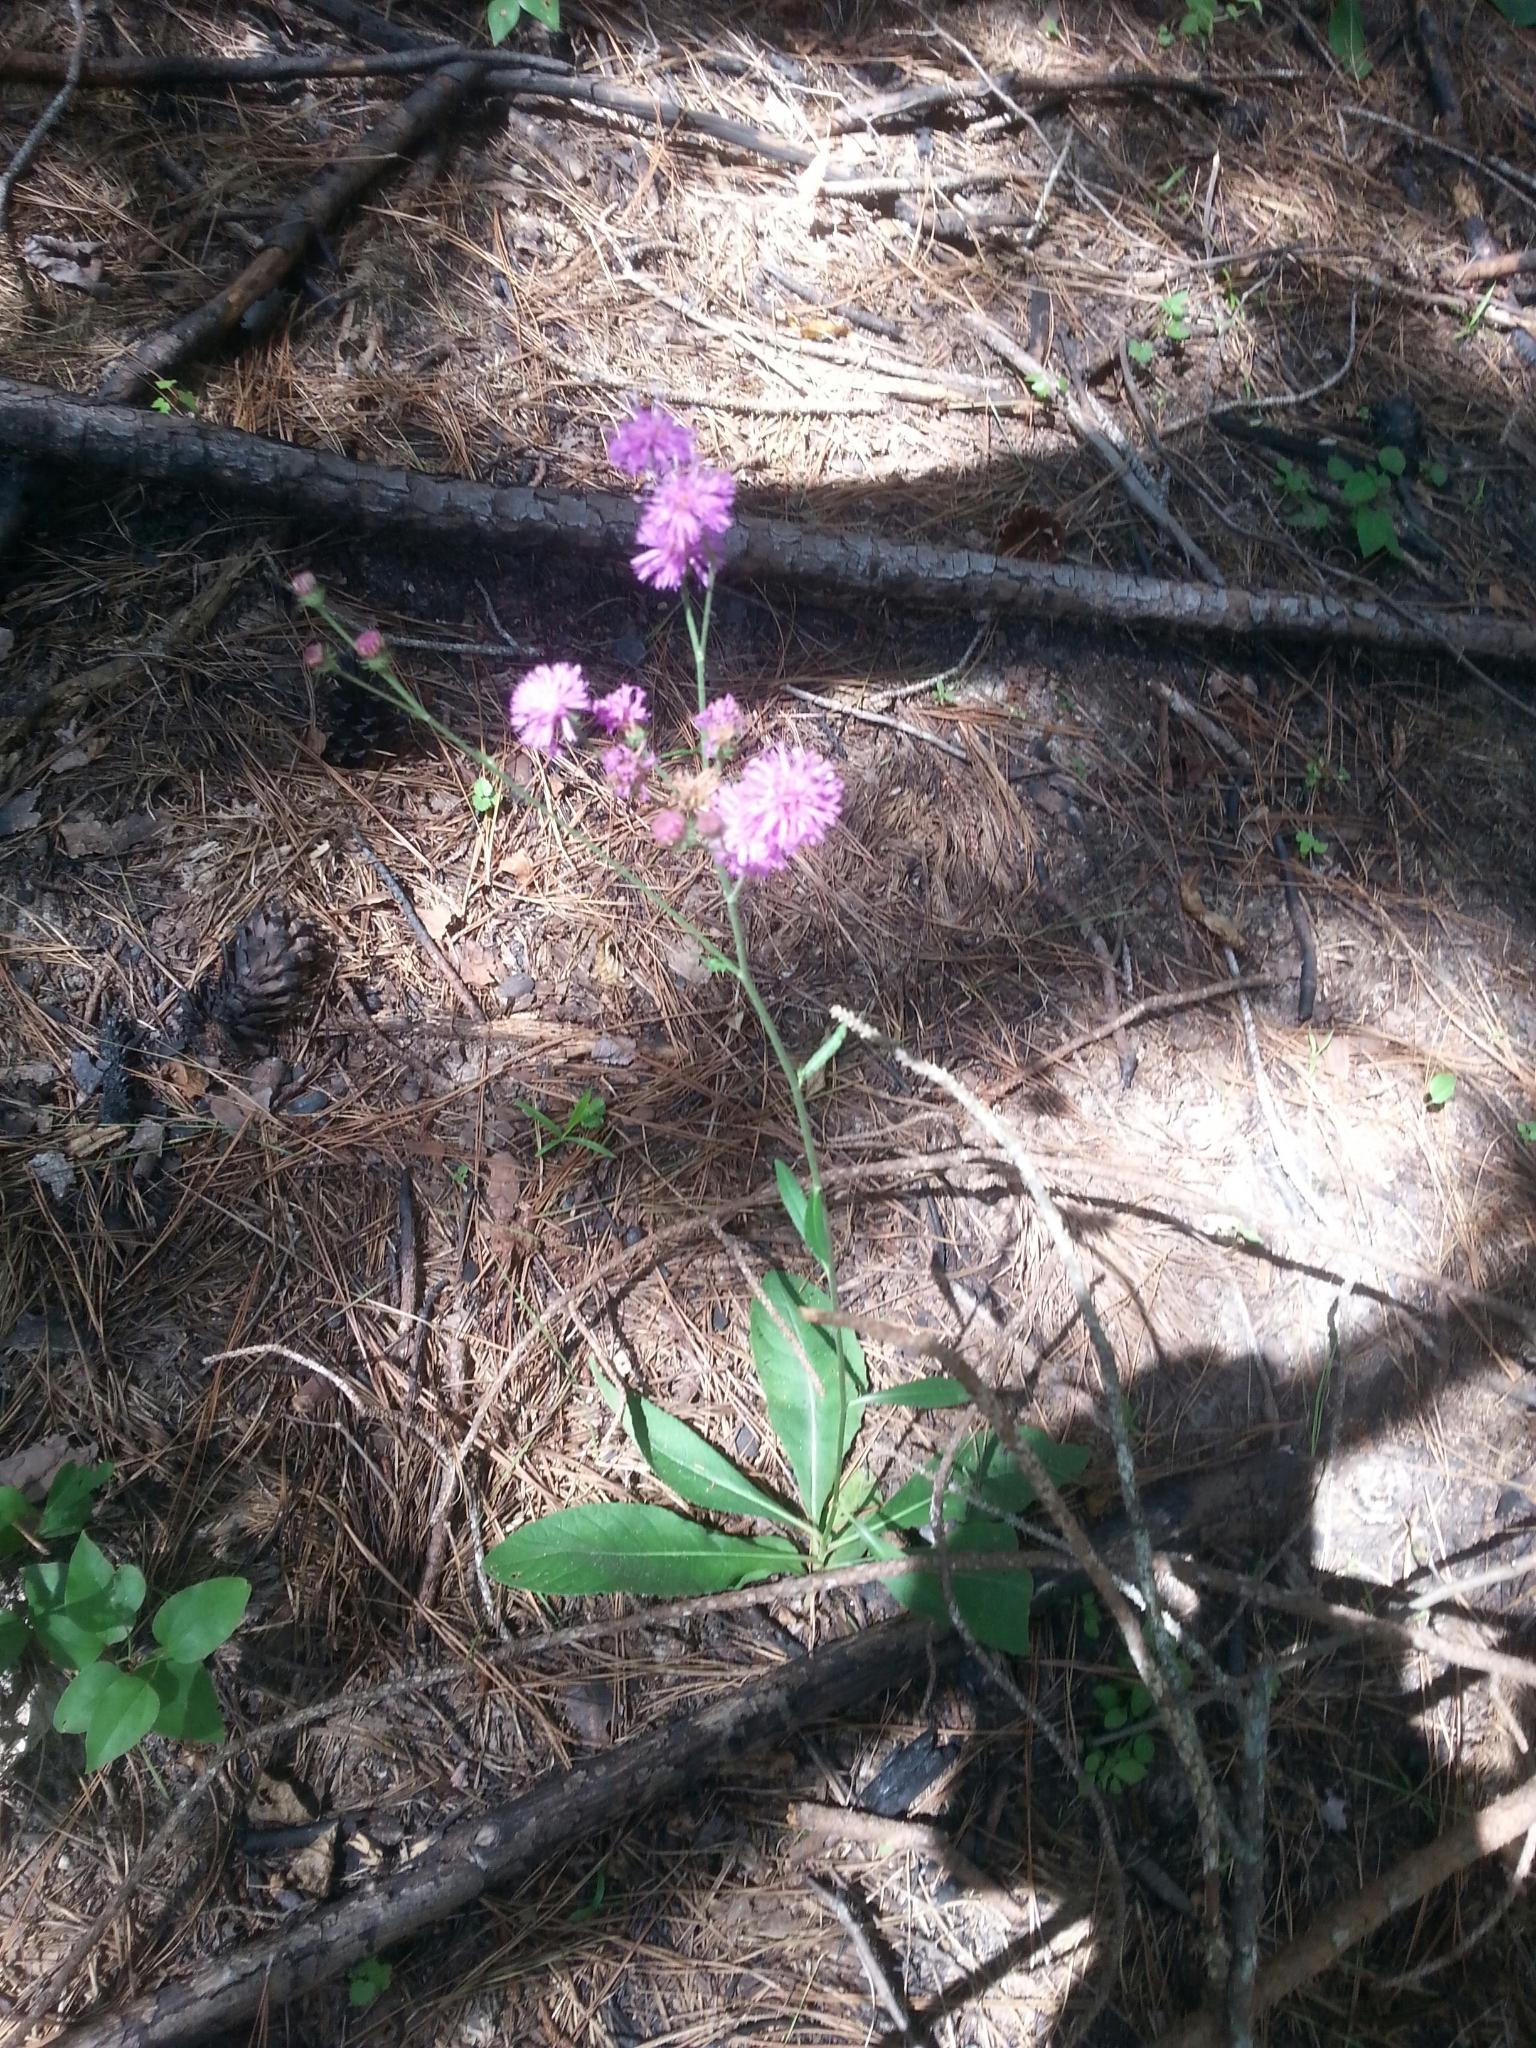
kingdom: Plantae
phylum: Tracheophyta
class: Magnoliopsida
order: Asterales
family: Asteraceae
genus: Vernonia
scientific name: Vernonia acaulis
